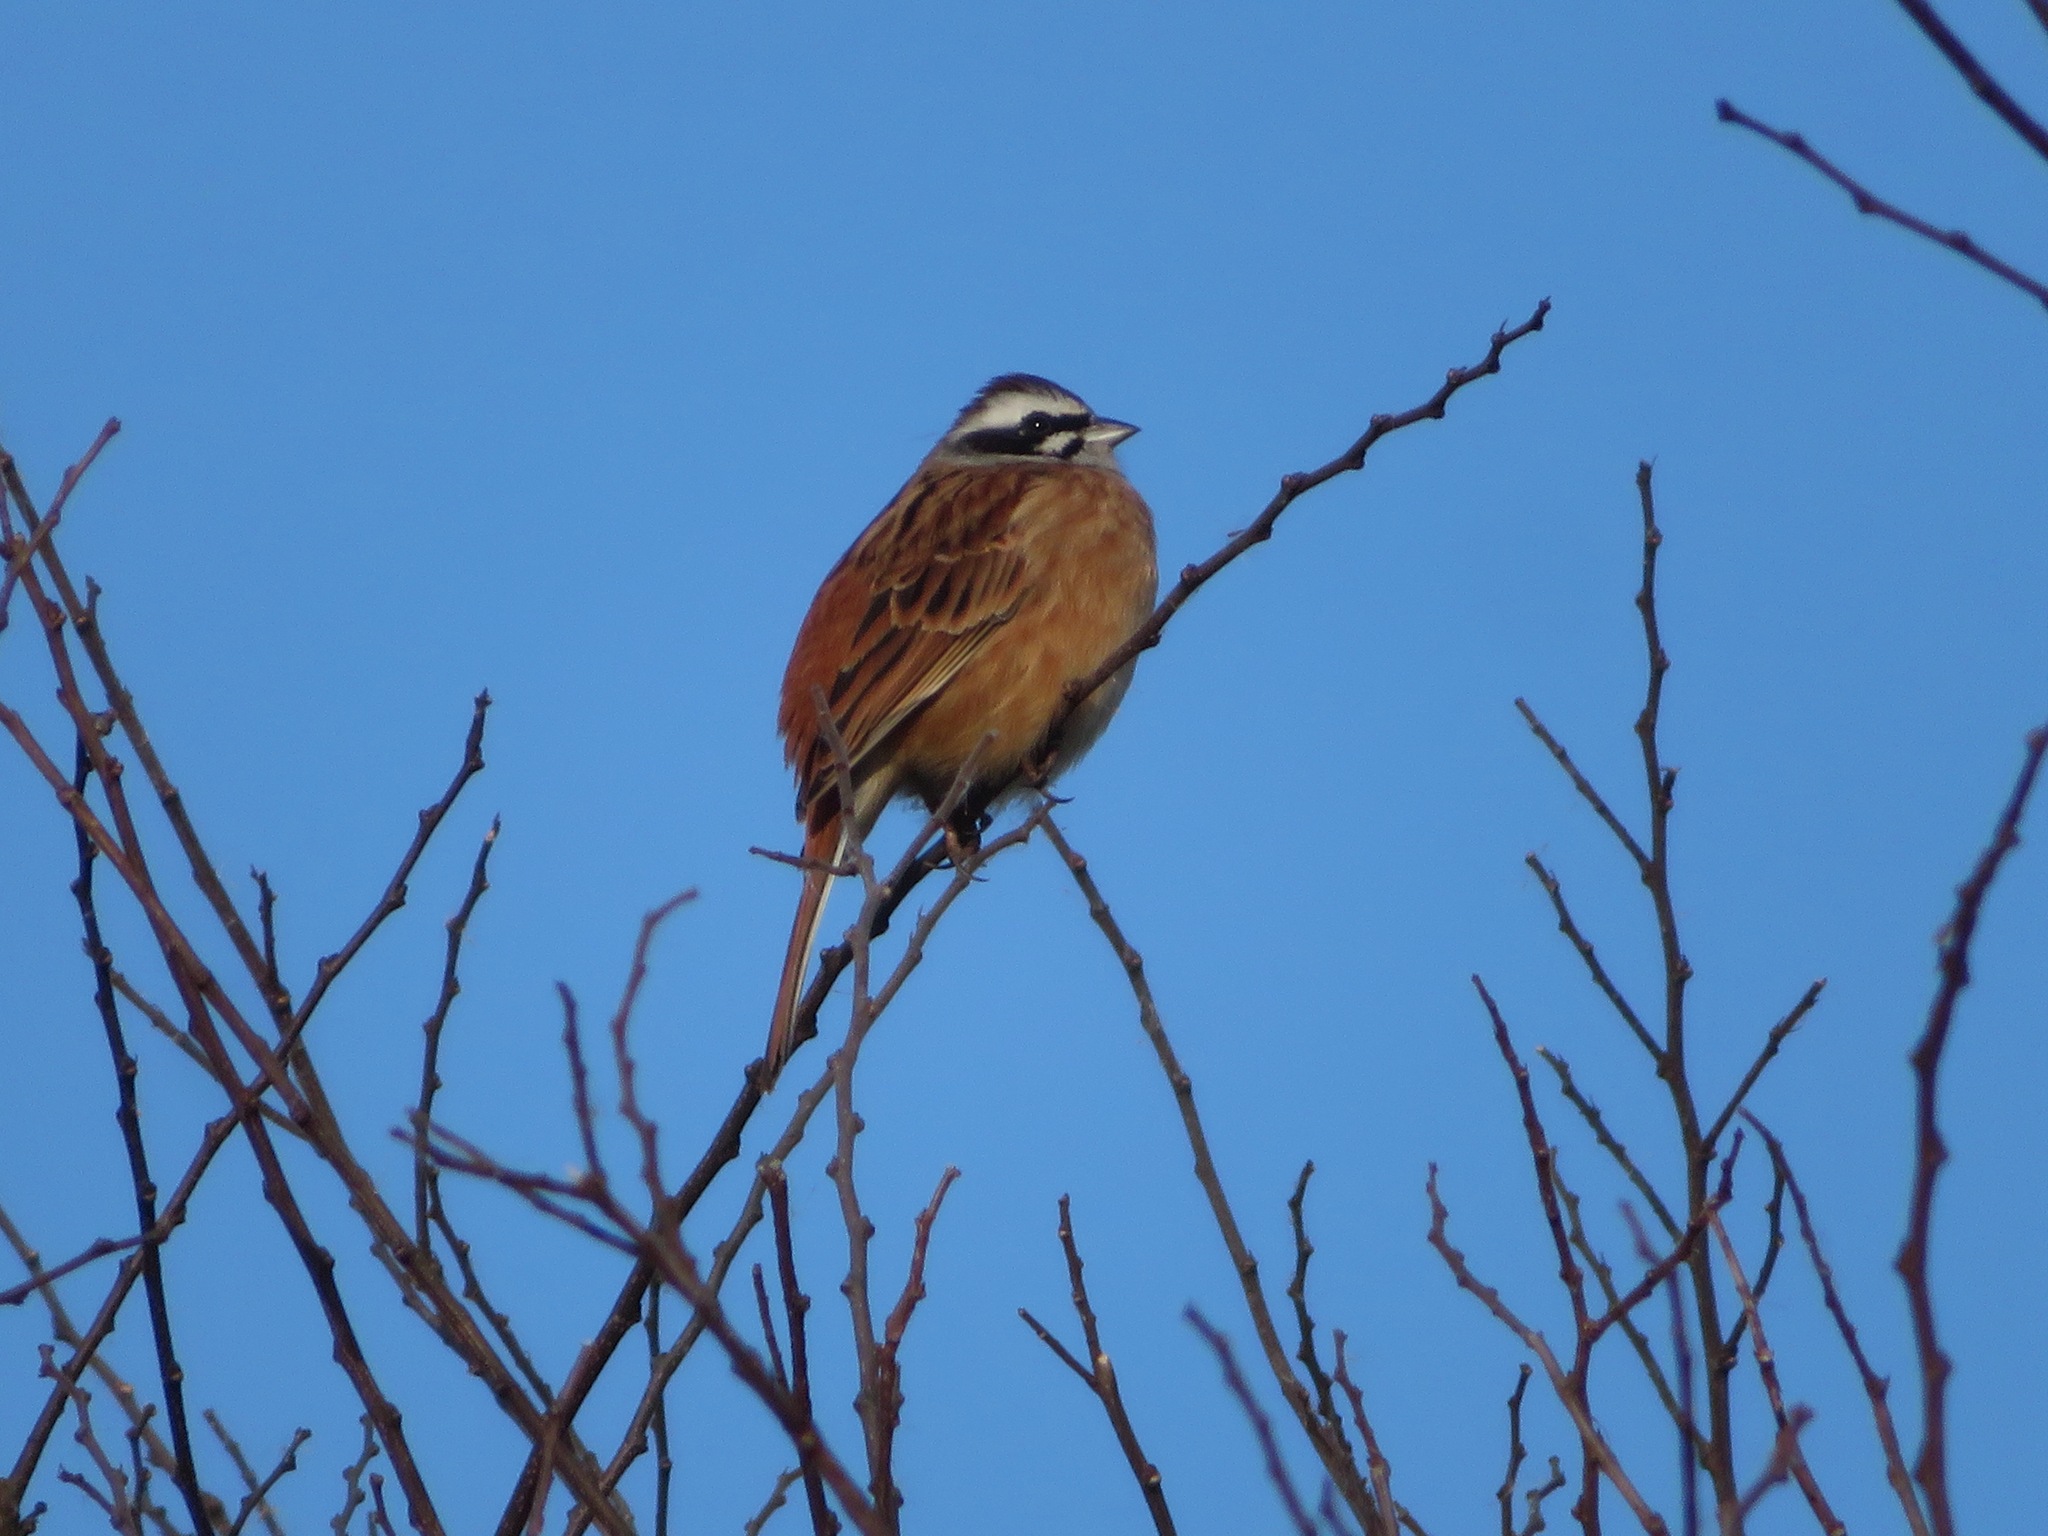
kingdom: Animalia
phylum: Chordata
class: Aves
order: Passeriformes
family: Emberizidae
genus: Emberiza
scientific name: Emberiza cioides
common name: Meadow bunting
